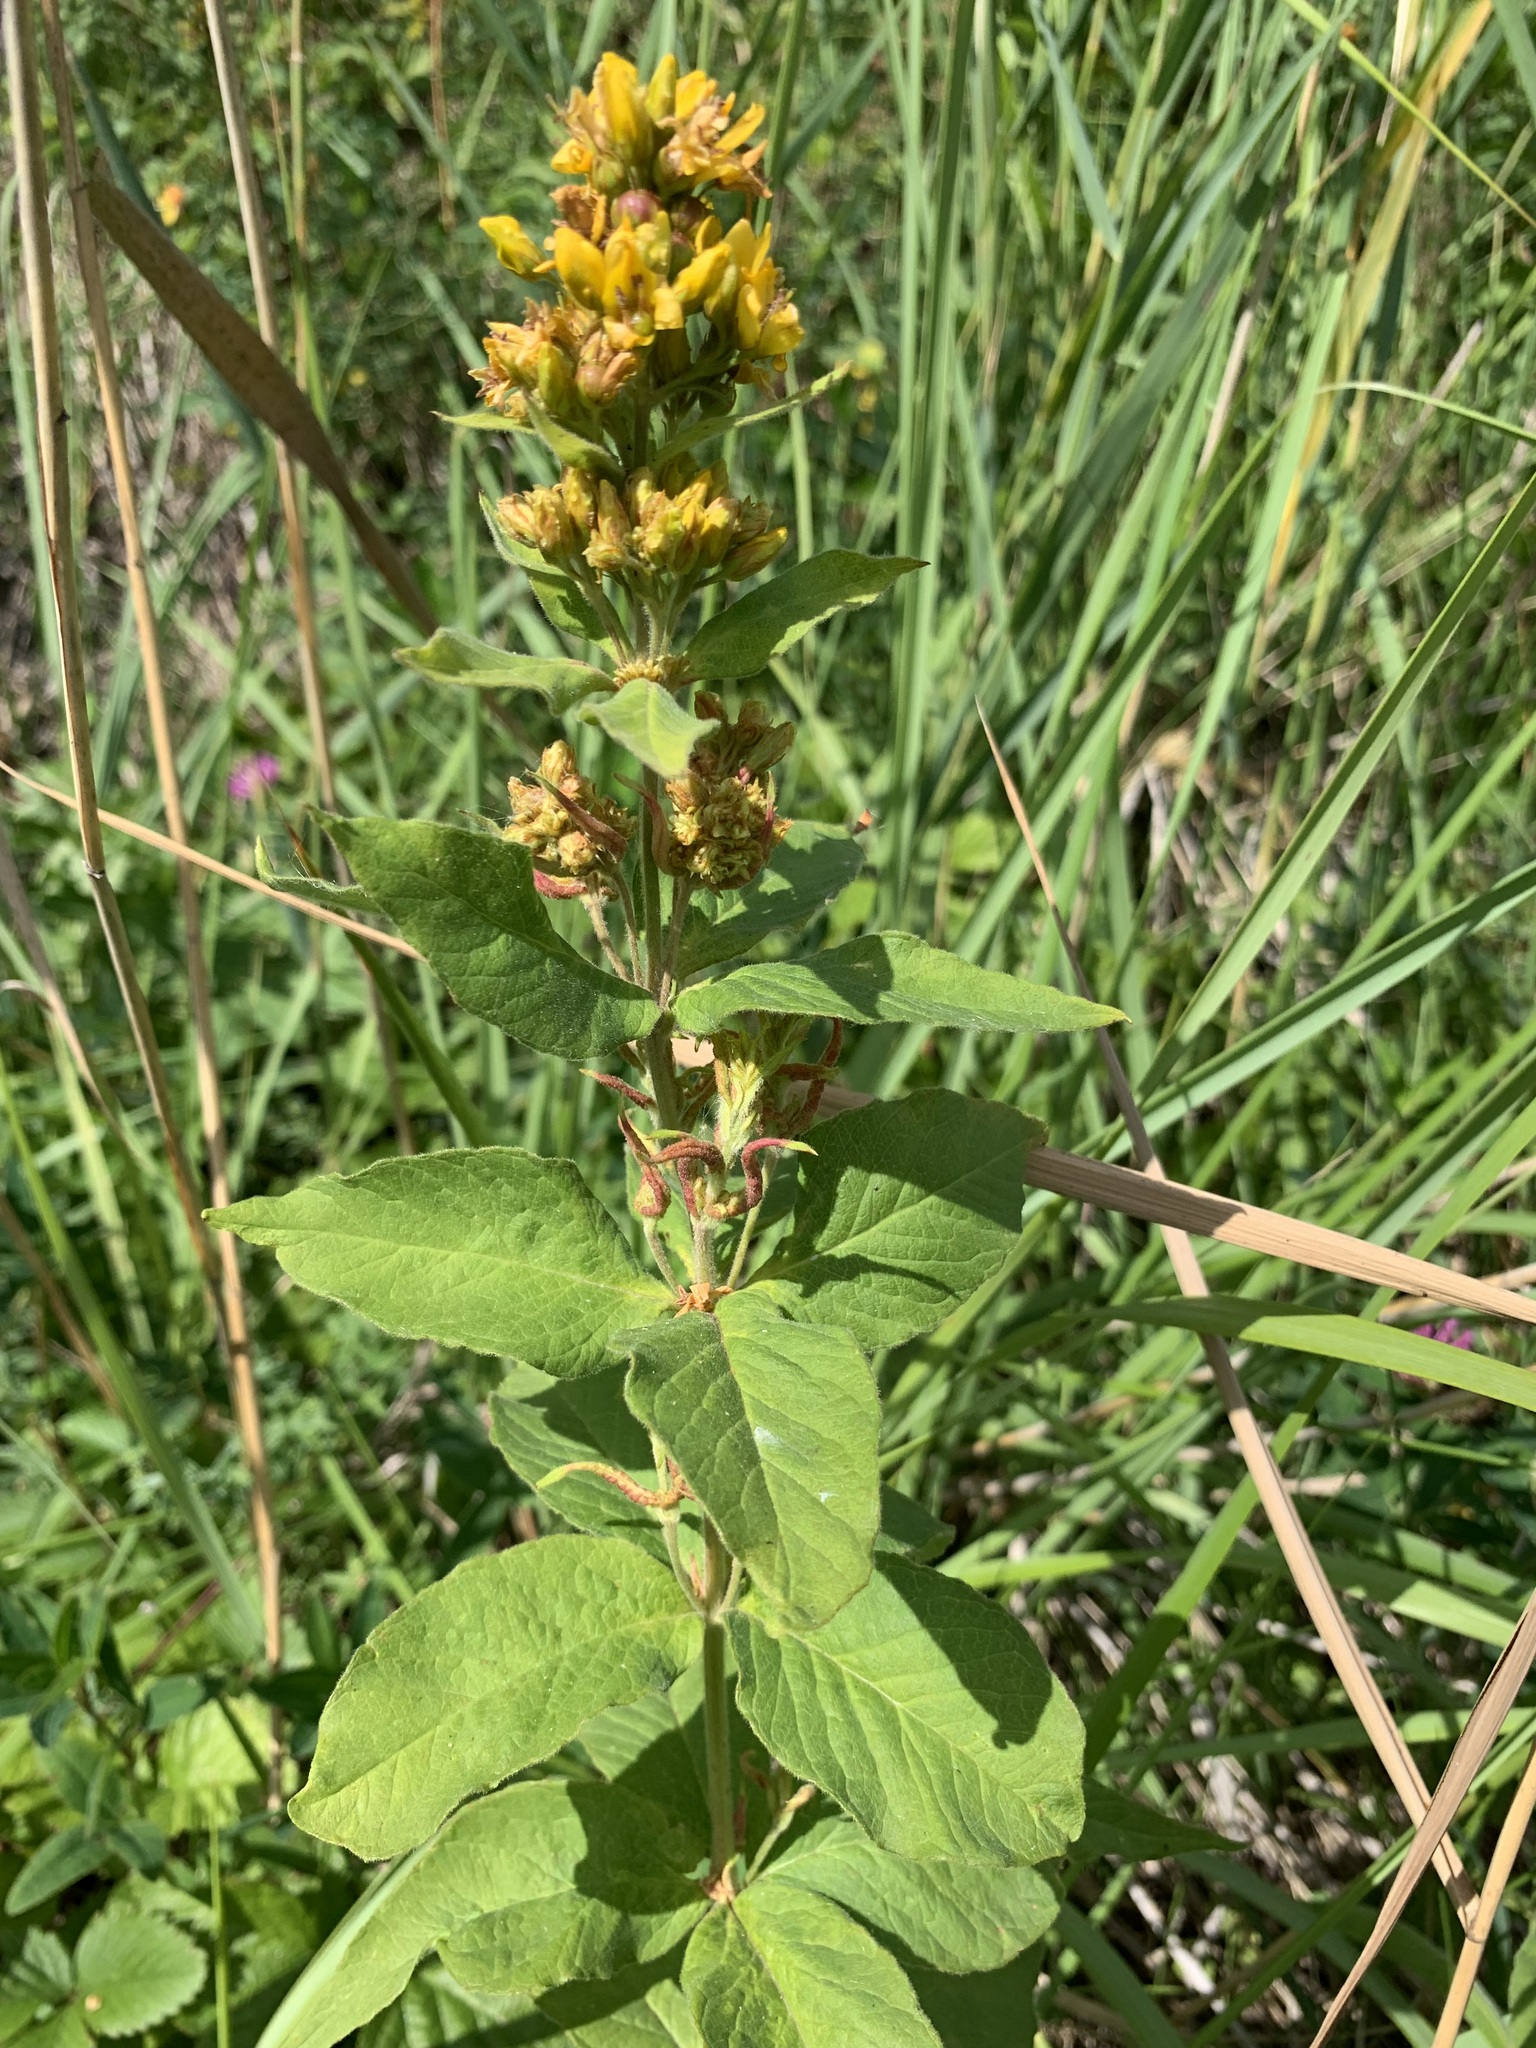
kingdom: Plantae
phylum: Tracheophyta
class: Magnoliopsida
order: Ericales
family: Primulaceae
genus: Lysimachia
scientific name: Lysimachia vulgaris
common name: Yellow loosestrife
